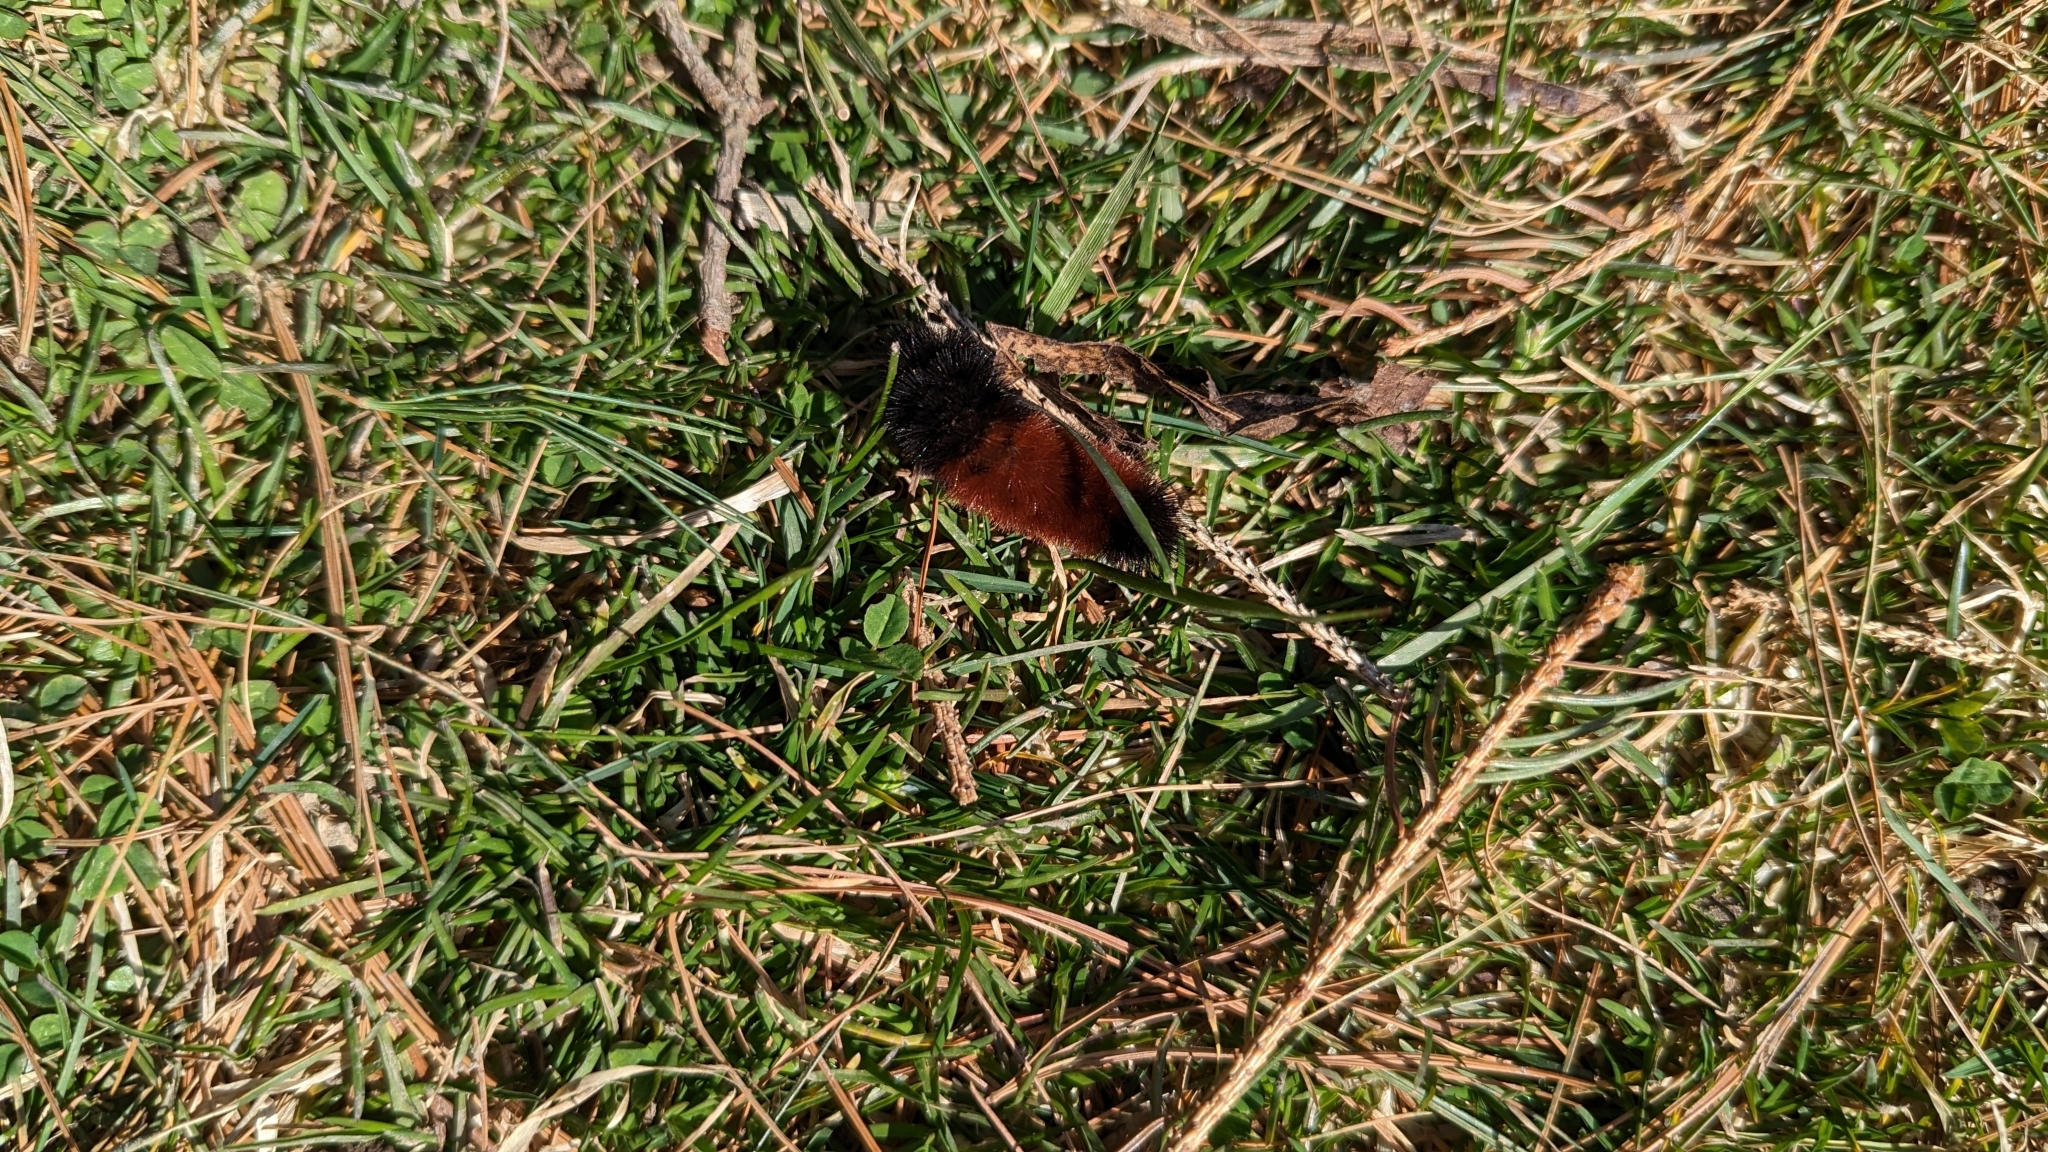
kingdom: Animalia
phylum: Arthropoda
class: Insecta
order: Lepidoptera
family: Erebidae
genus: Pyrrharctia
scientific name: Pyrrharctia isabella
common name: Isabella tiger moth
